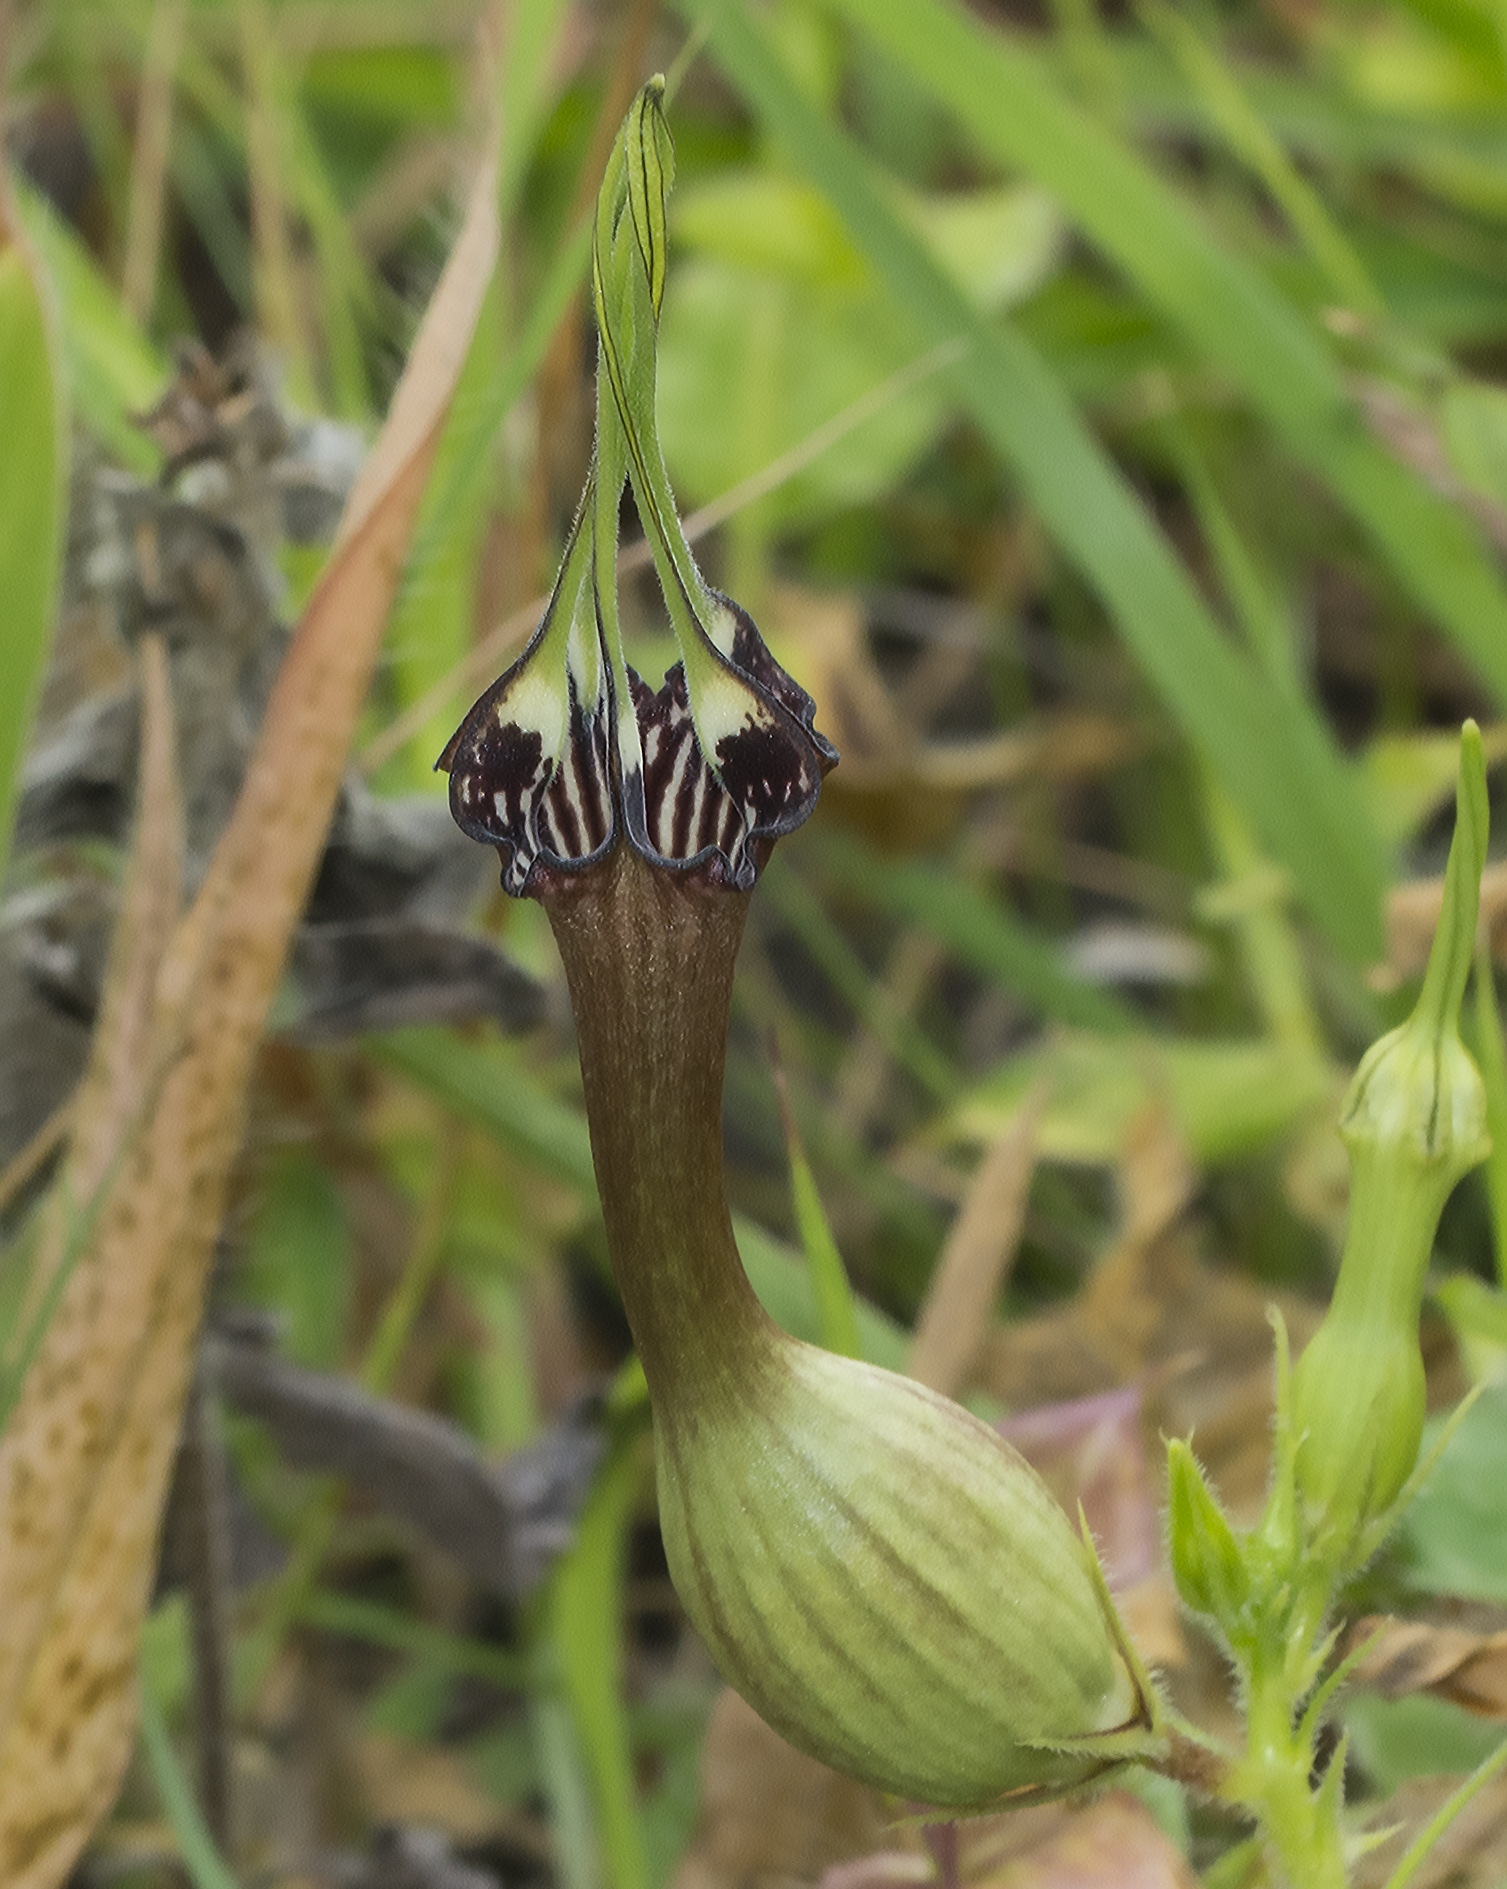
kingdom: Plantae
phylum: Tracheophyta
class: Magnoliopsida
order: Gentianales
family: Apocynaceae
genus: Ceropegia
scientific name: Ceropegia mahabalei
